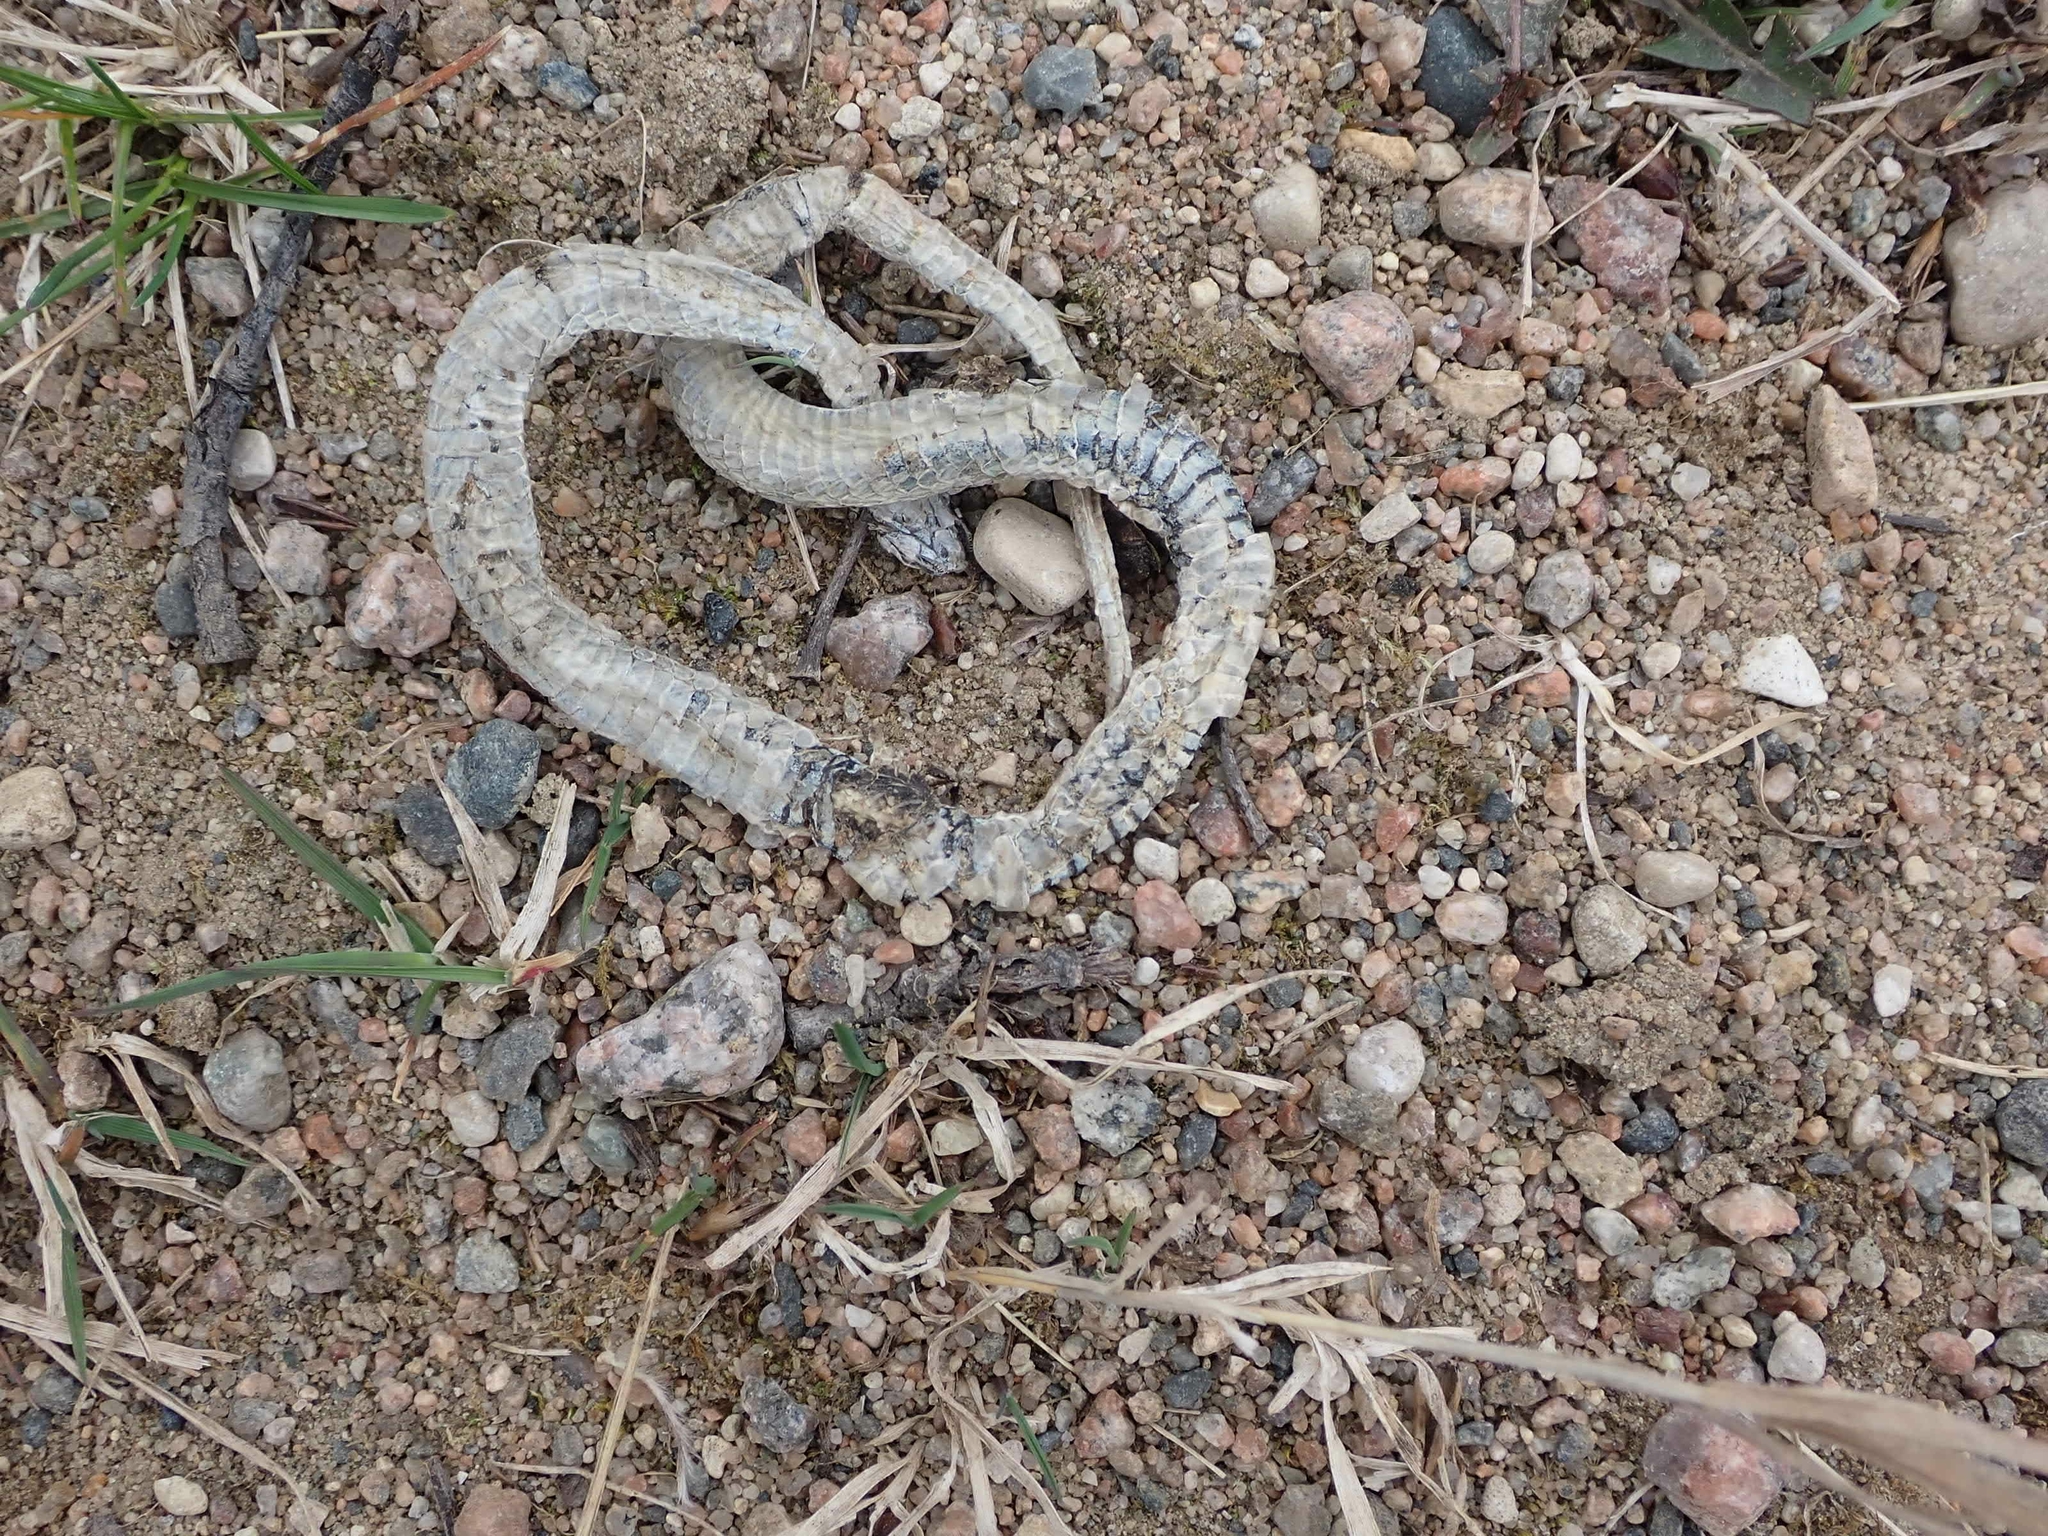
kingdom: Animalia
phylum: Chordata
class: Squamata
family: Colubridae
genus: Thamnophis
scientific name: Thamnophis sirtalis
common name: Common garter snake
